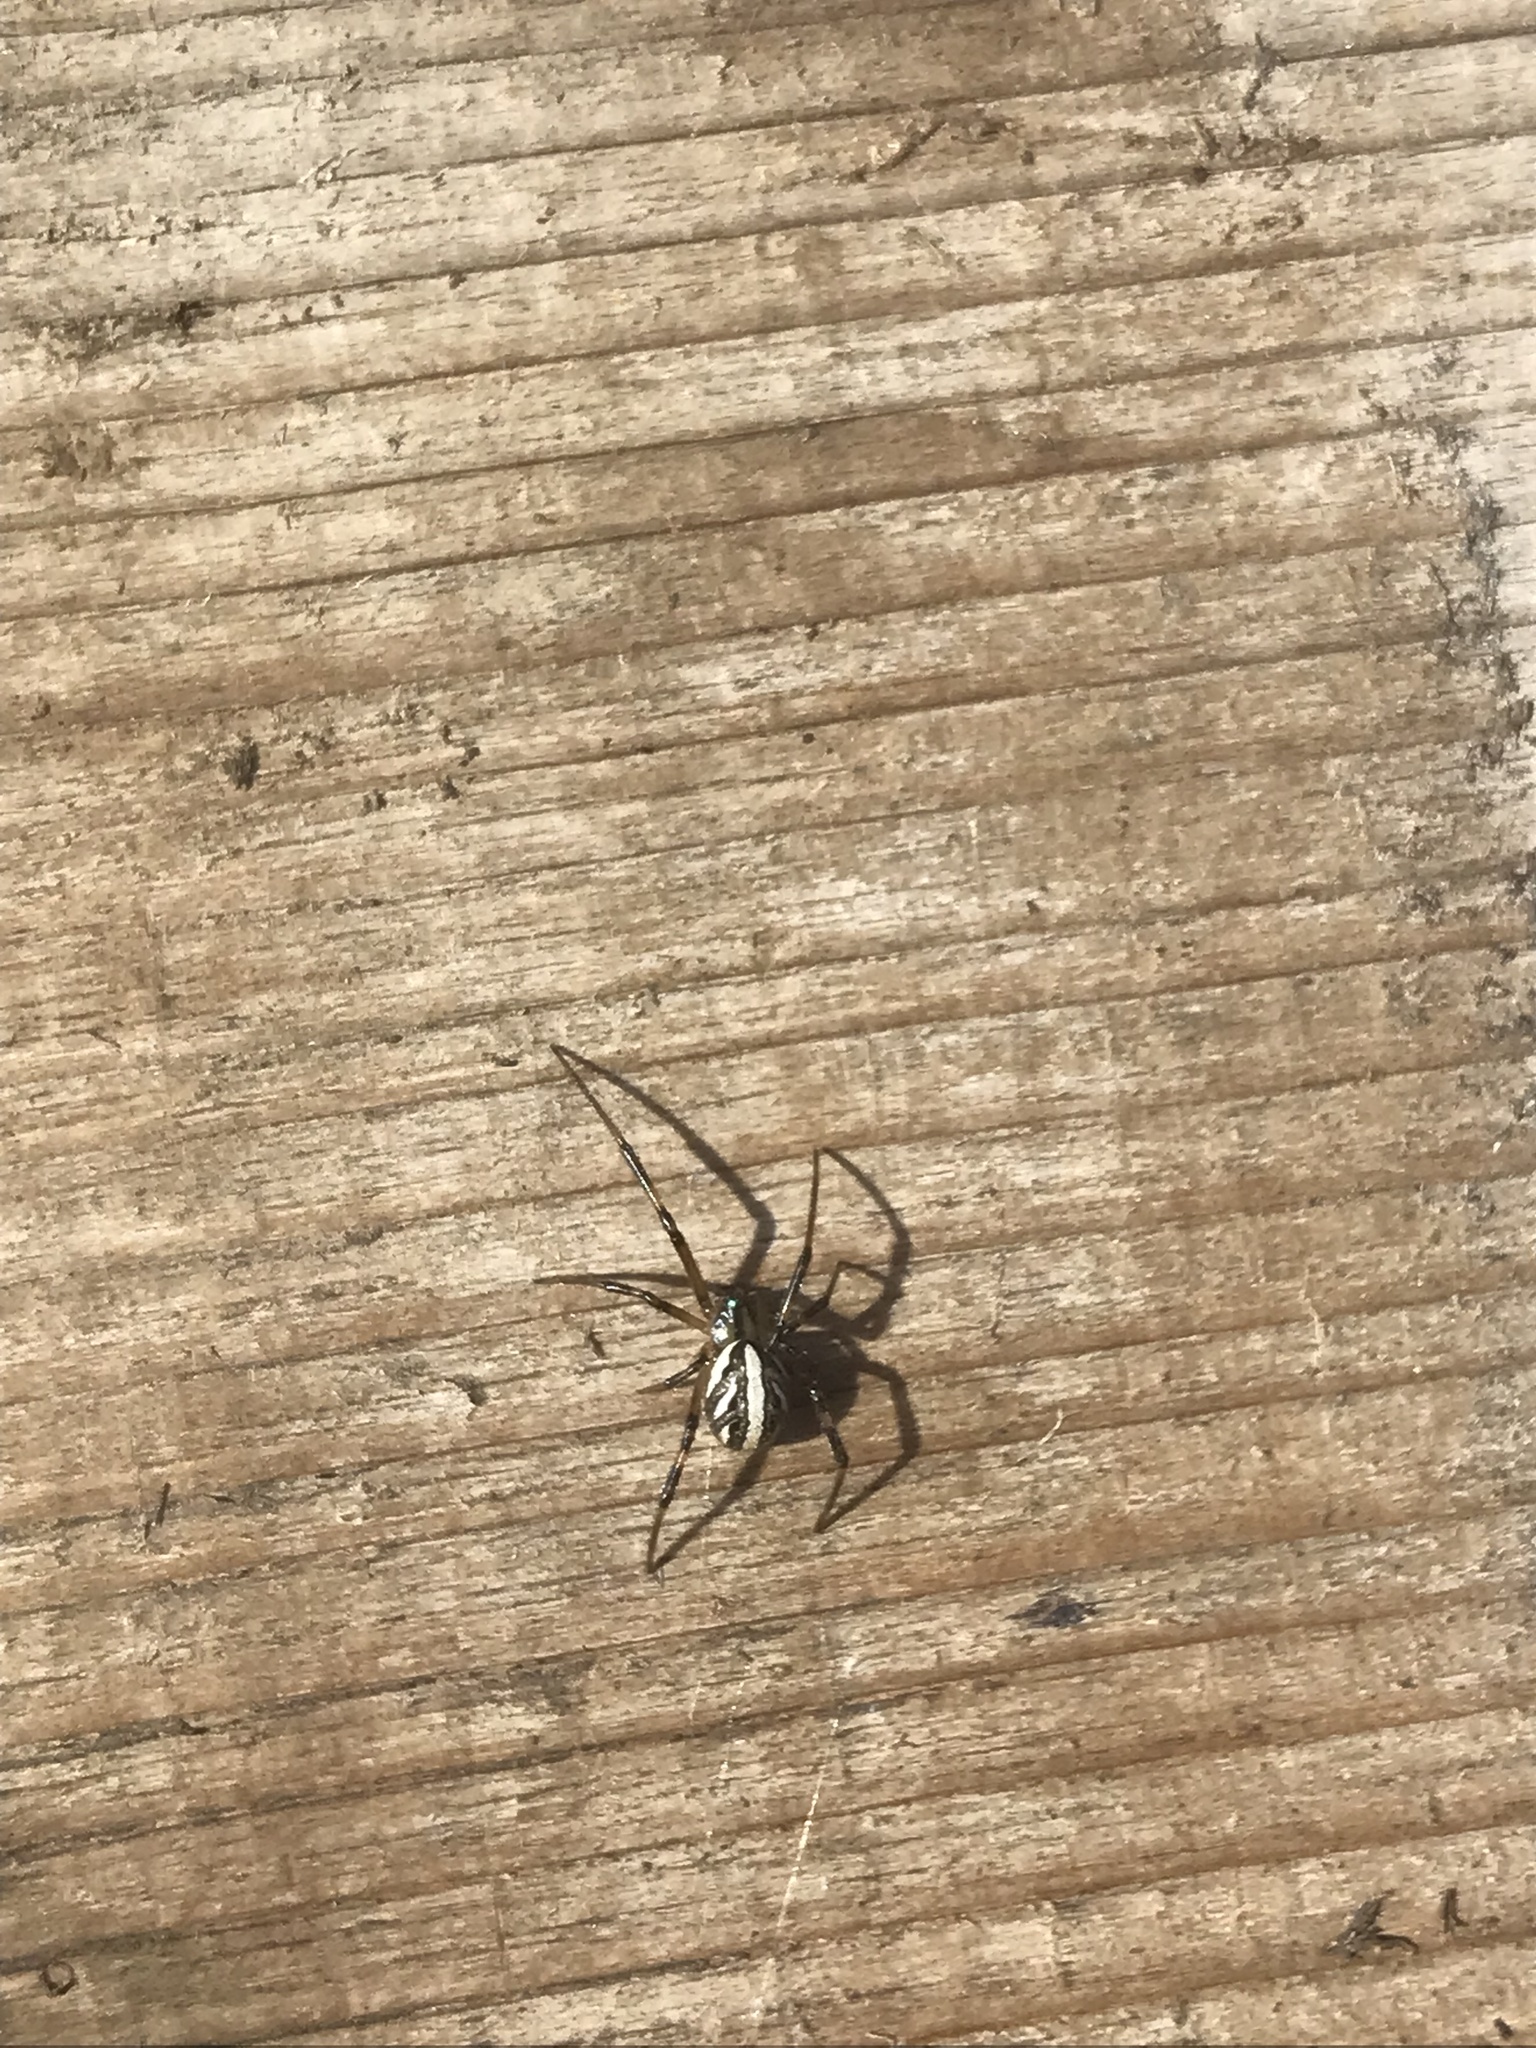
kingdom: Animalia
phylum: Arthropoda
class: Arachnida
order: Araneae
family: Theridiidae
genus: Latrodectus
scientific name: Latrodectus hesperus
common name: Western black widow
